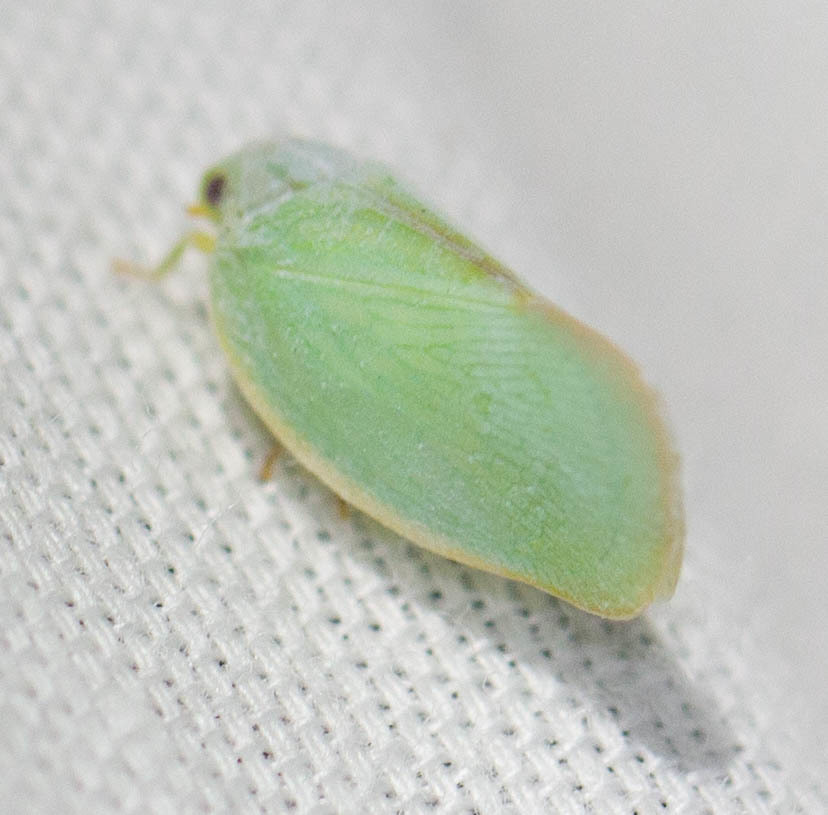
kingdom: Animalia
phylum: Arthropoda
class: Insecta
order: Hemiptera
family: Flatidae
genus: Ormenoides
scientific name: Ormenoides venusta
